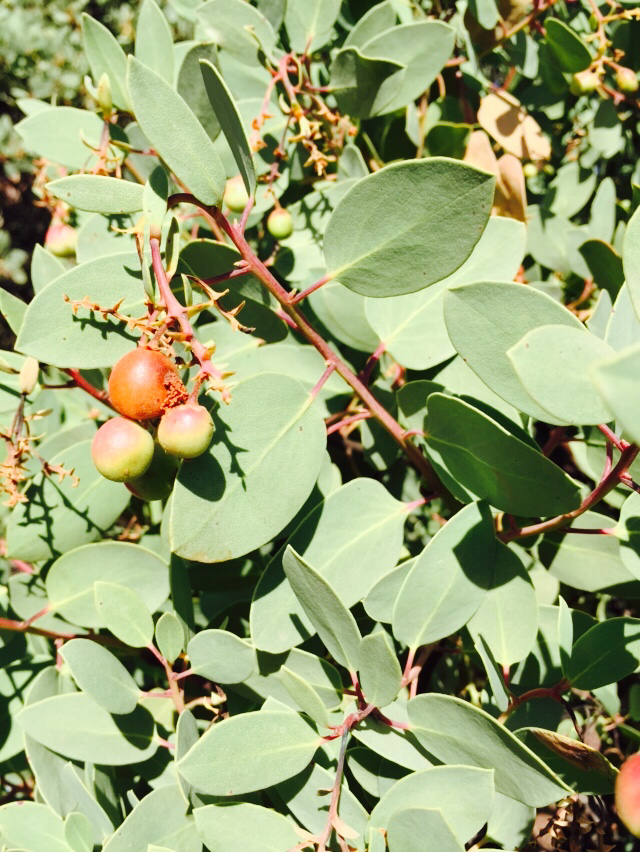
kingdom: Plantae
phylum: Tracheophyta
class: Magnoliopsida
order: Ericales
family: Ericaceae
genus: Arctostaphylos
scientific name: Arctostaphylos glauca
